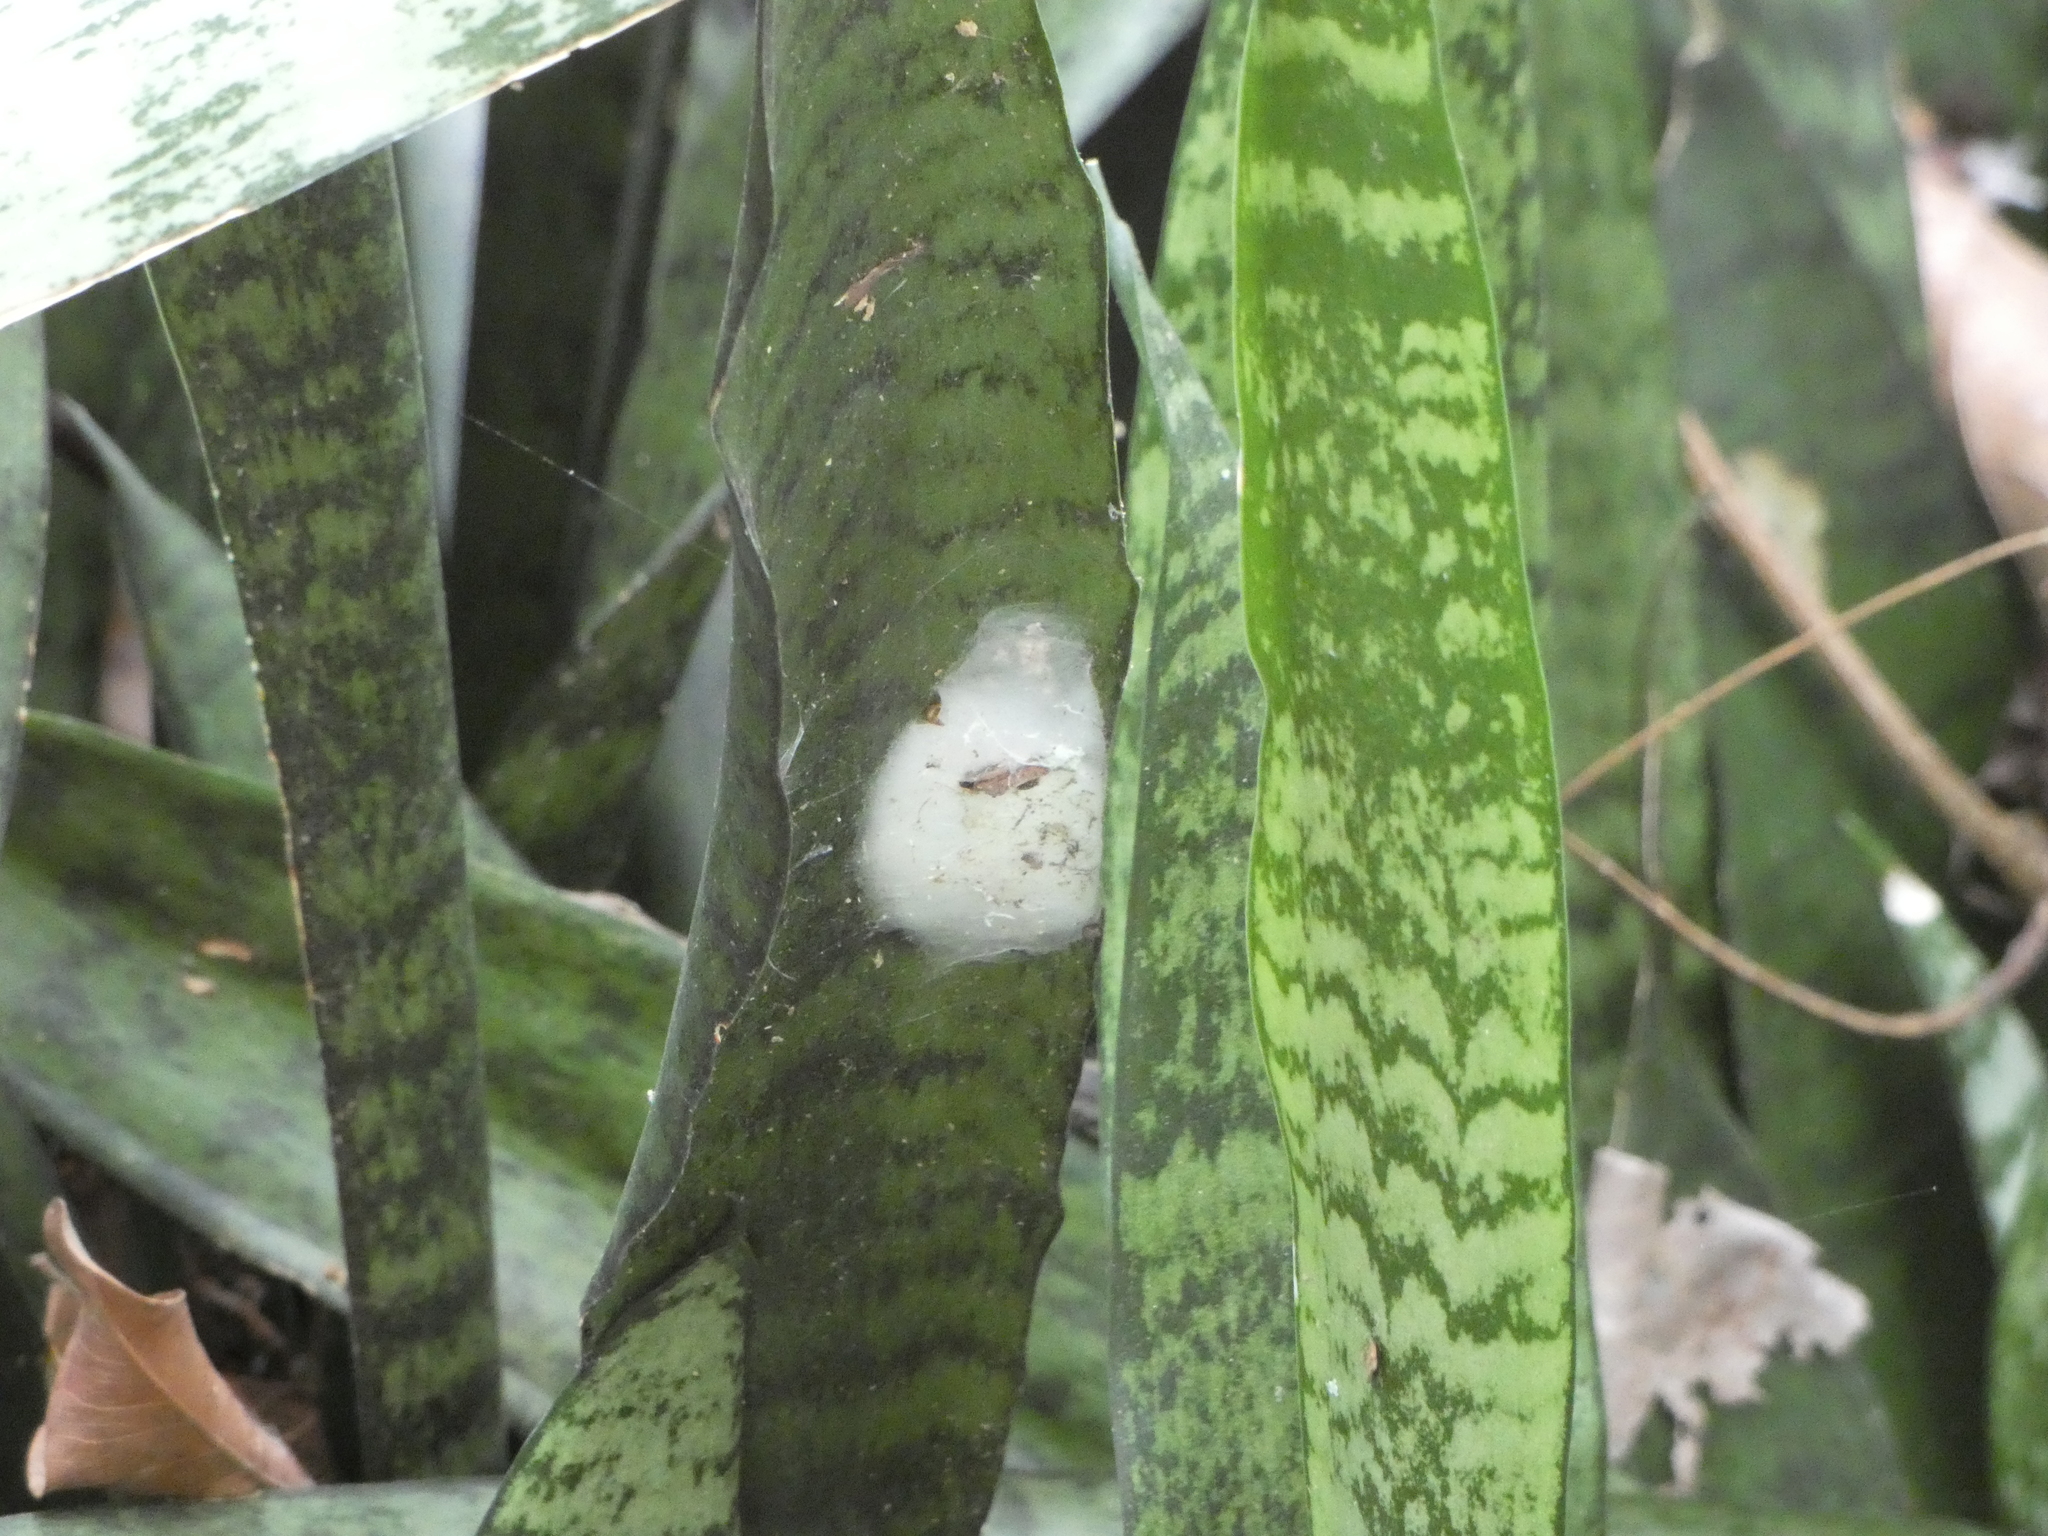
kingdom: Animalia
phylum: Arthropoda
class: Arachnida
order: Araneae
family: Salticidae
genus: Balmaceda
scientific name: Balmaceda
